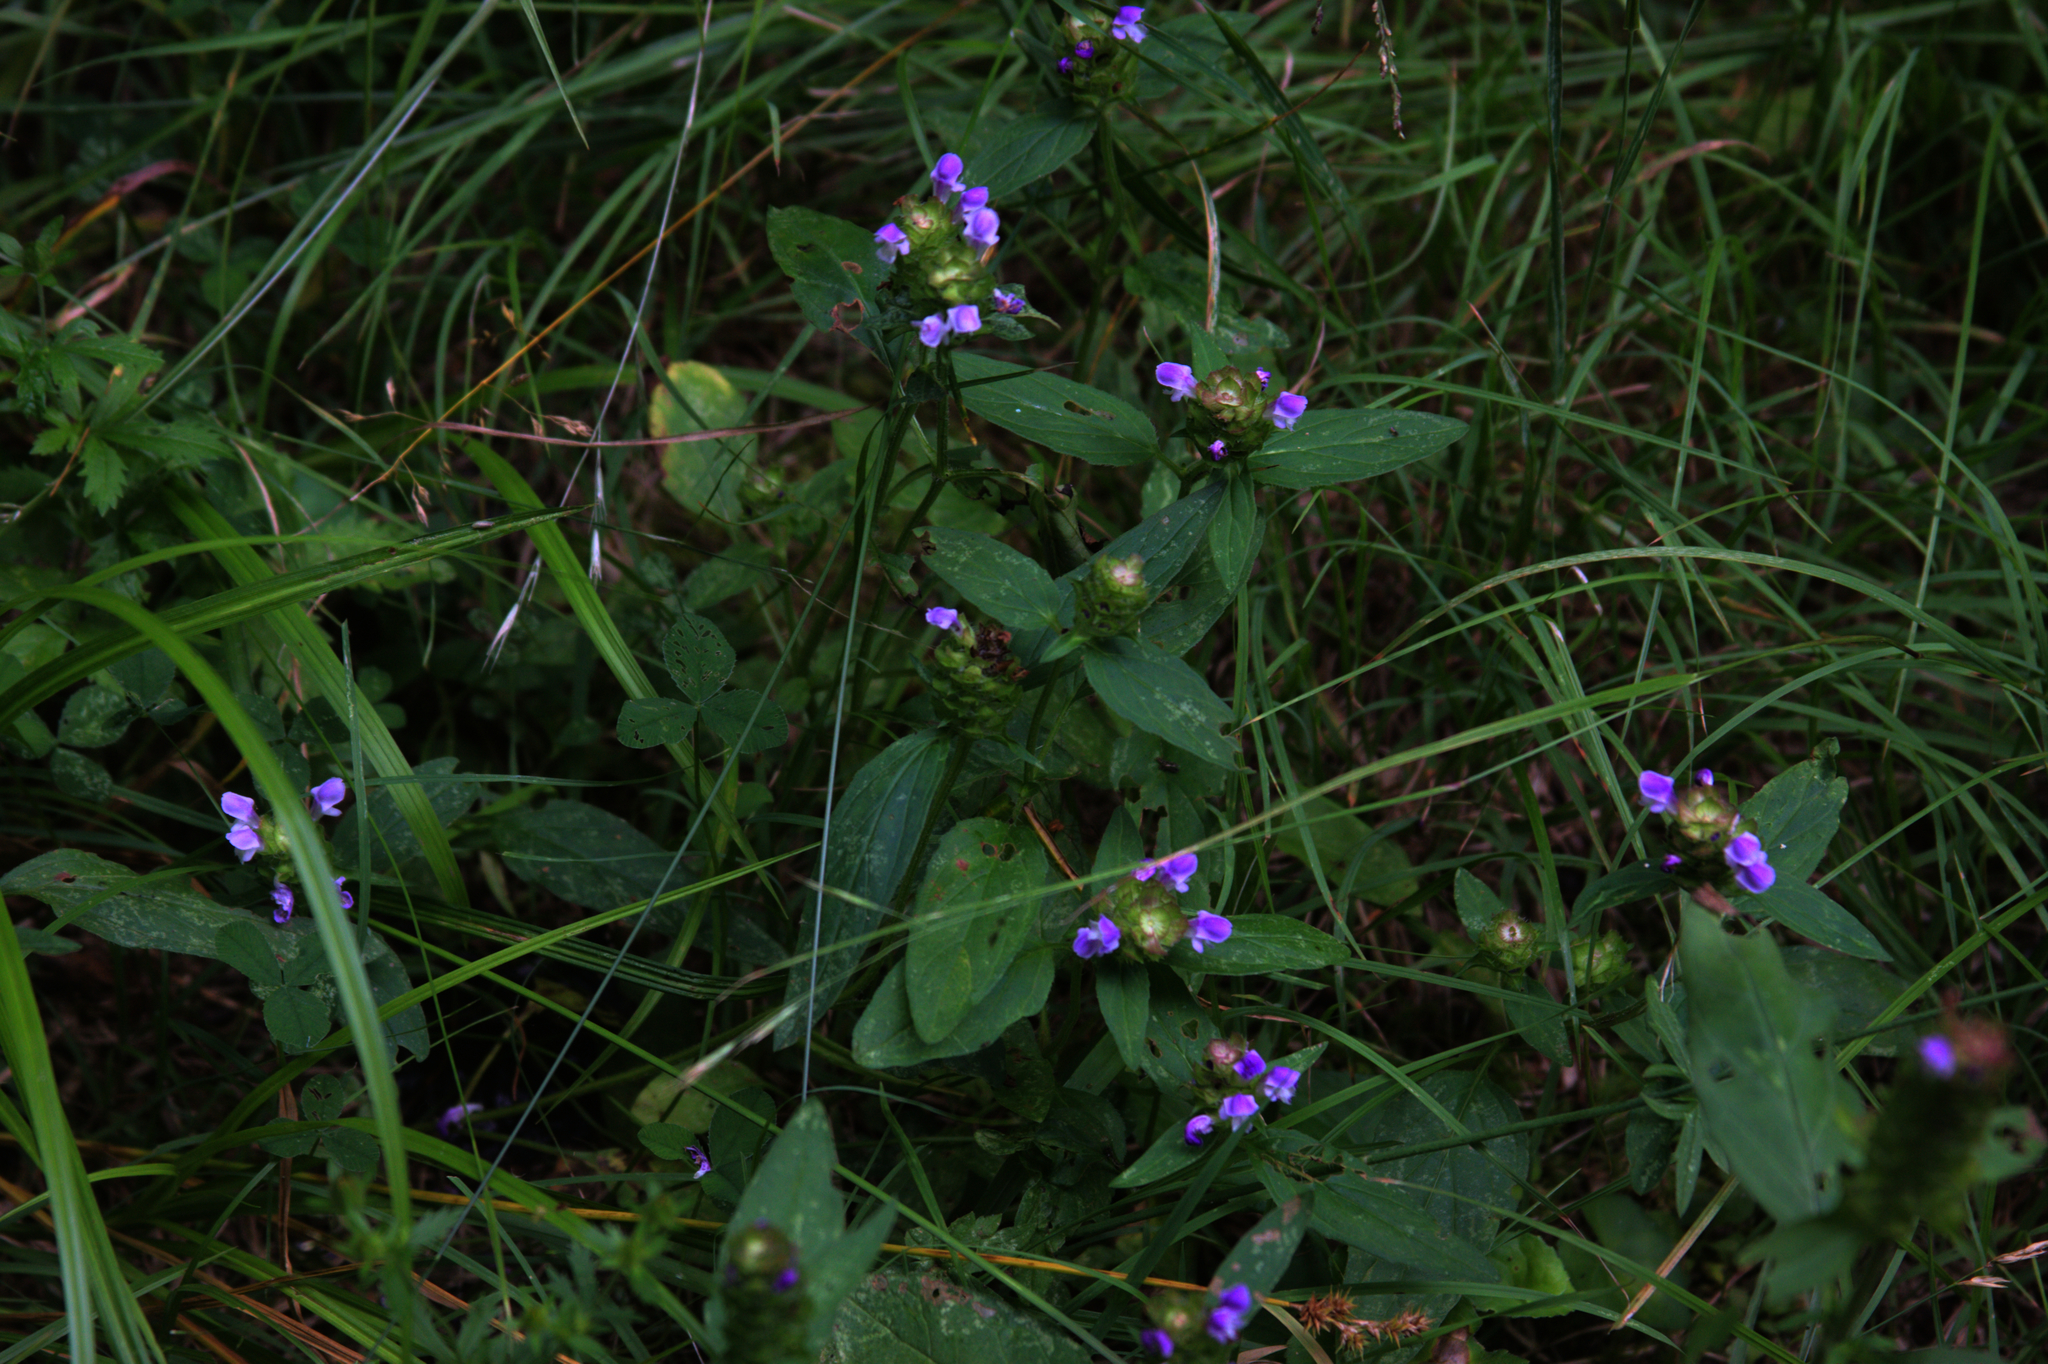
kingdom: Plantae
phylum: Tracheophyta
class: Magnoliopsida
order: Lamiales
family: Lamiaceae
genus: Prunella
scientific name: Prunella vulgaris
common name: Heal-all
